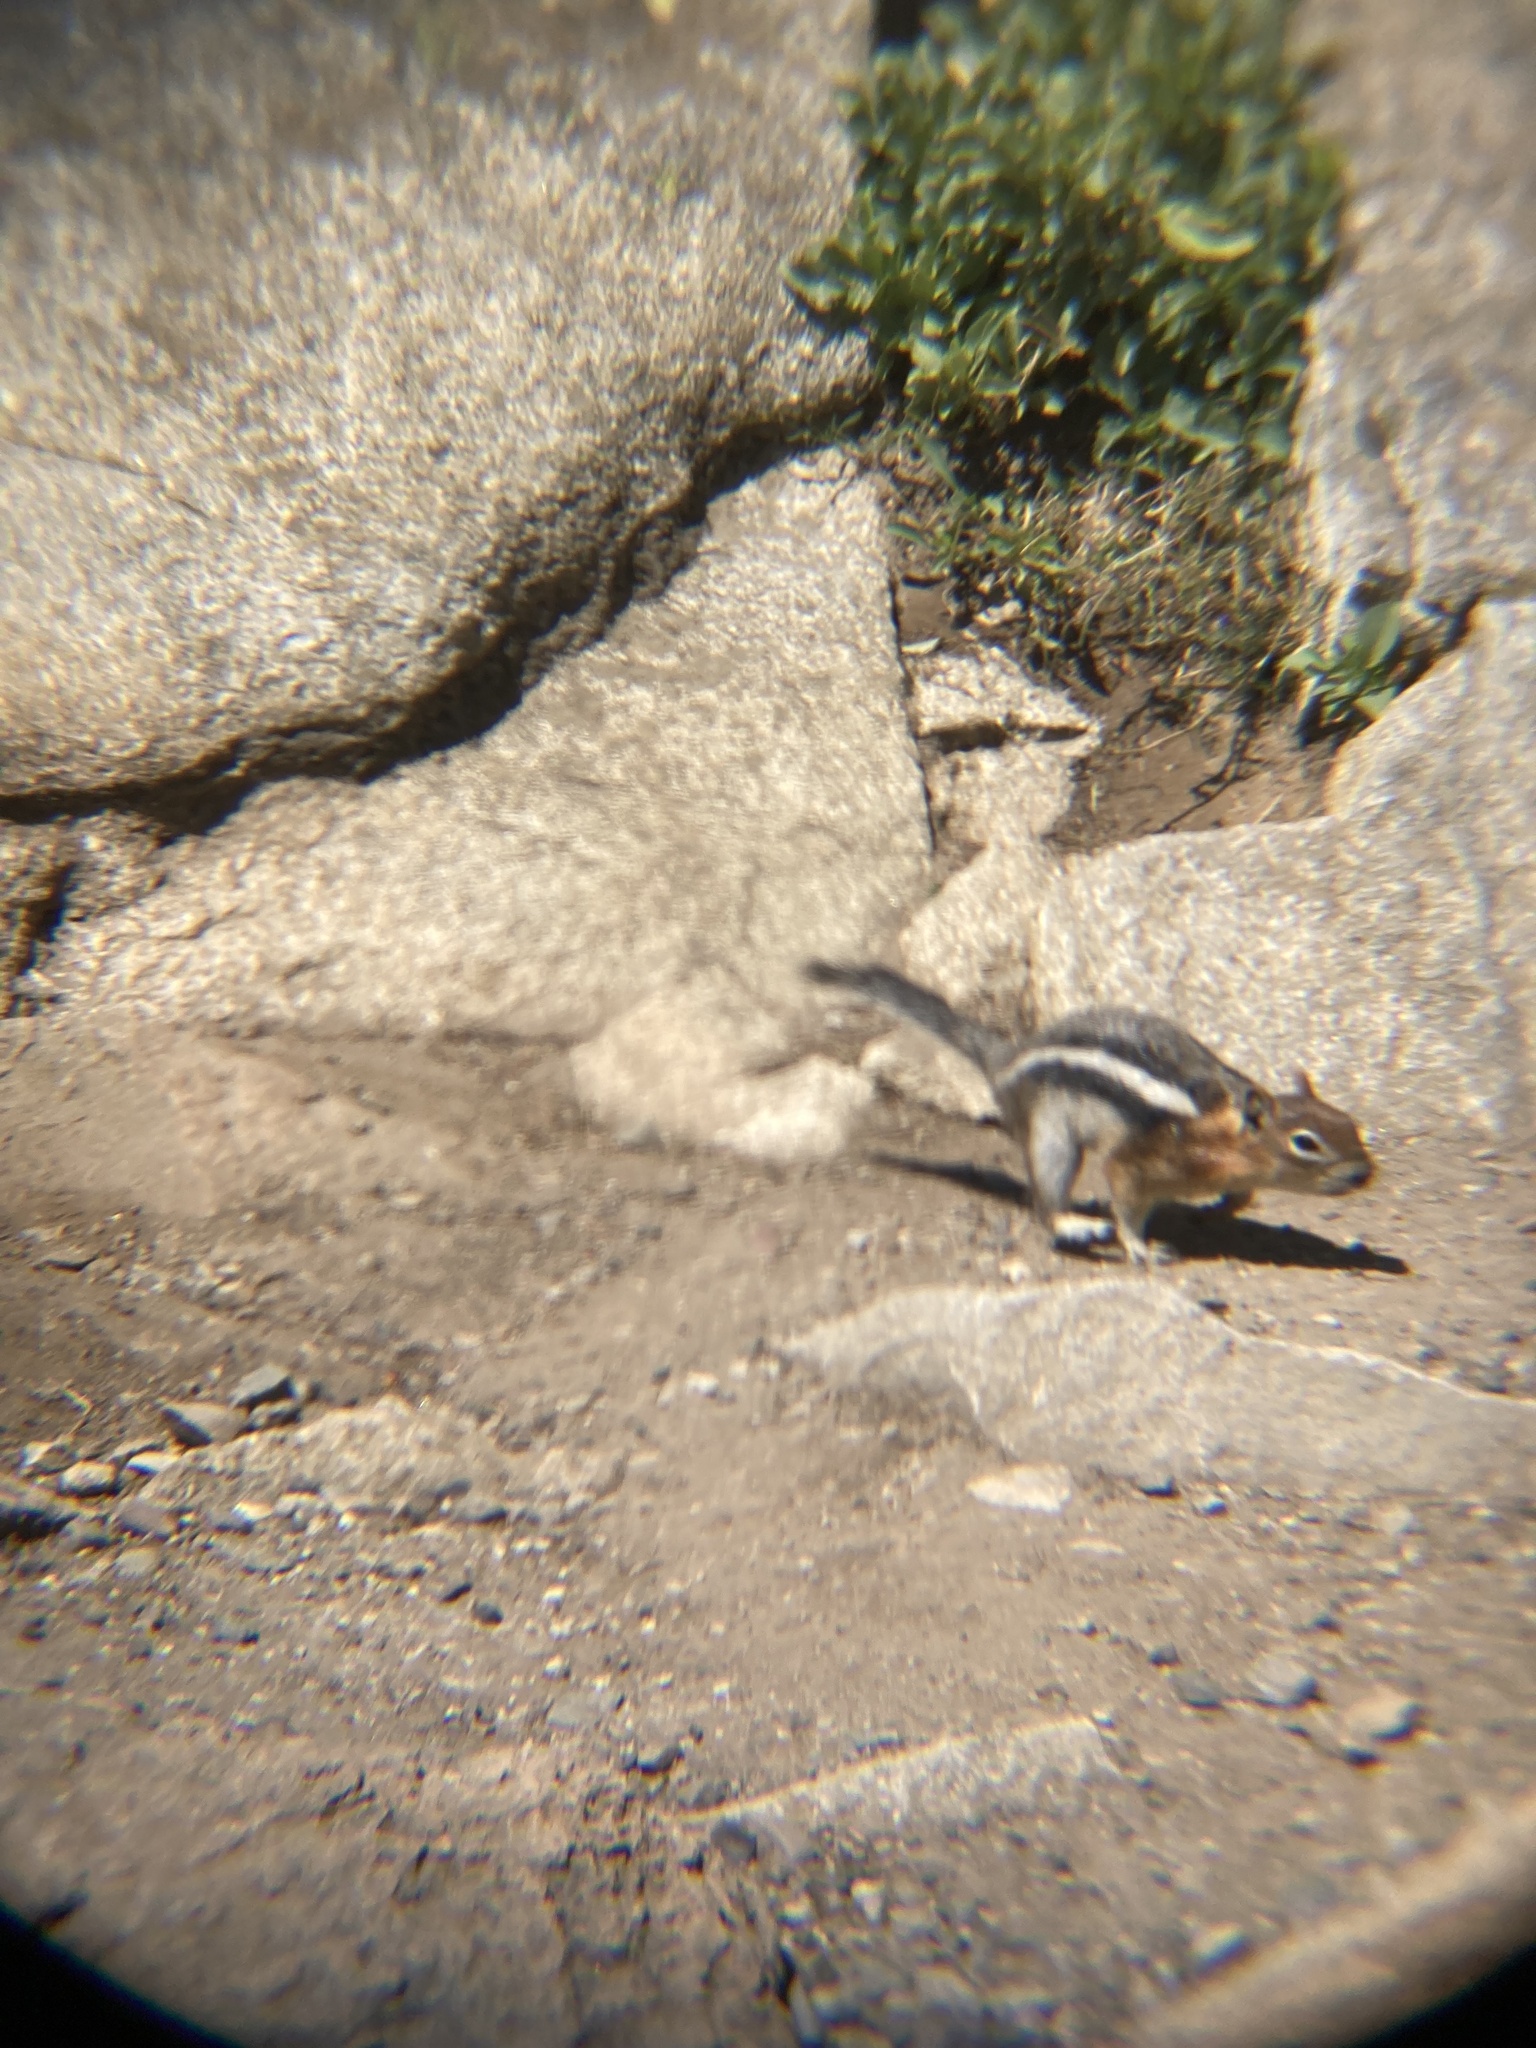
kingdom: Animalia
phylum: Chordata
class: Mammalia
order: Rodentia
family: Sciuridae
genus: Callospermophilus
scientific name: Callospermophilus lateralis
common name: Golden-mantled ground squirrel
